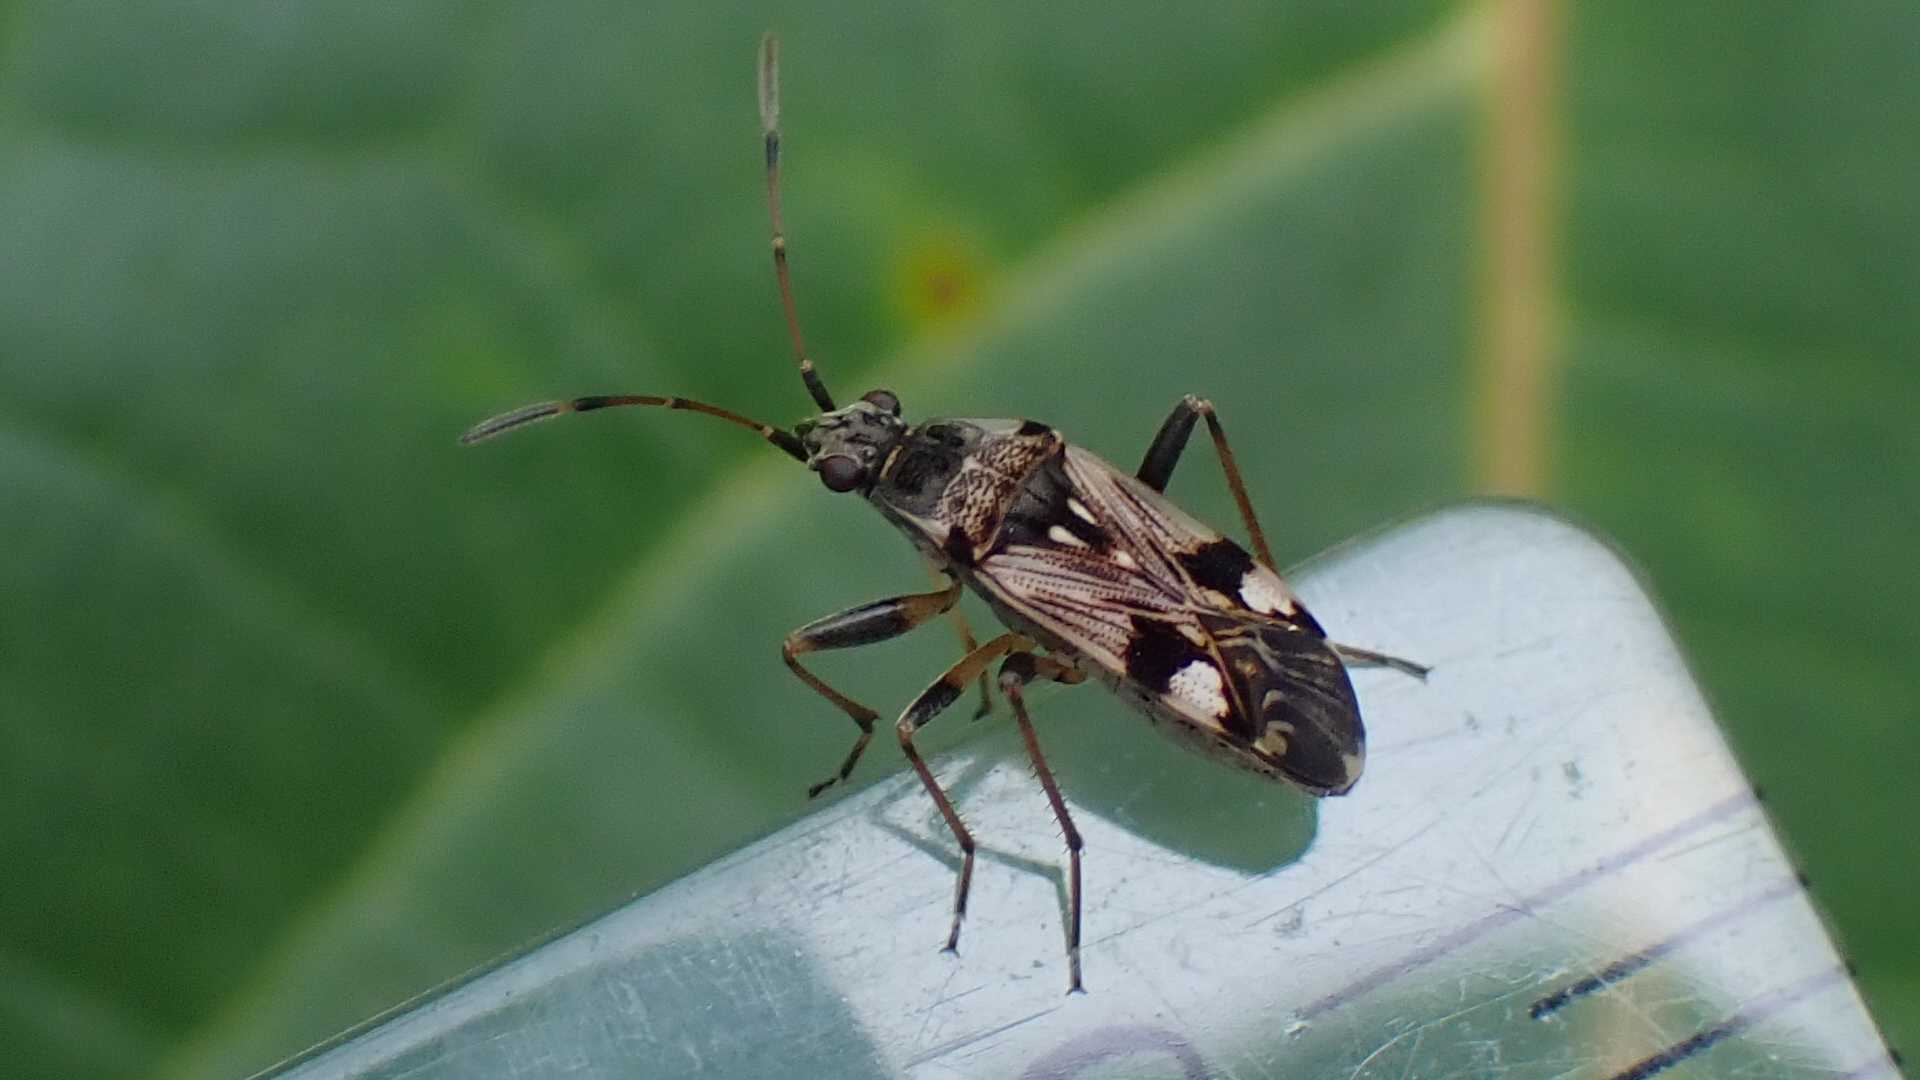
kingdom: Animalia
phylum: Arthropoda
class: Insecta
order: Hemiptera
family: Rhyparochromidae
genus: Beosus
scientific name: Beosus maritimus
